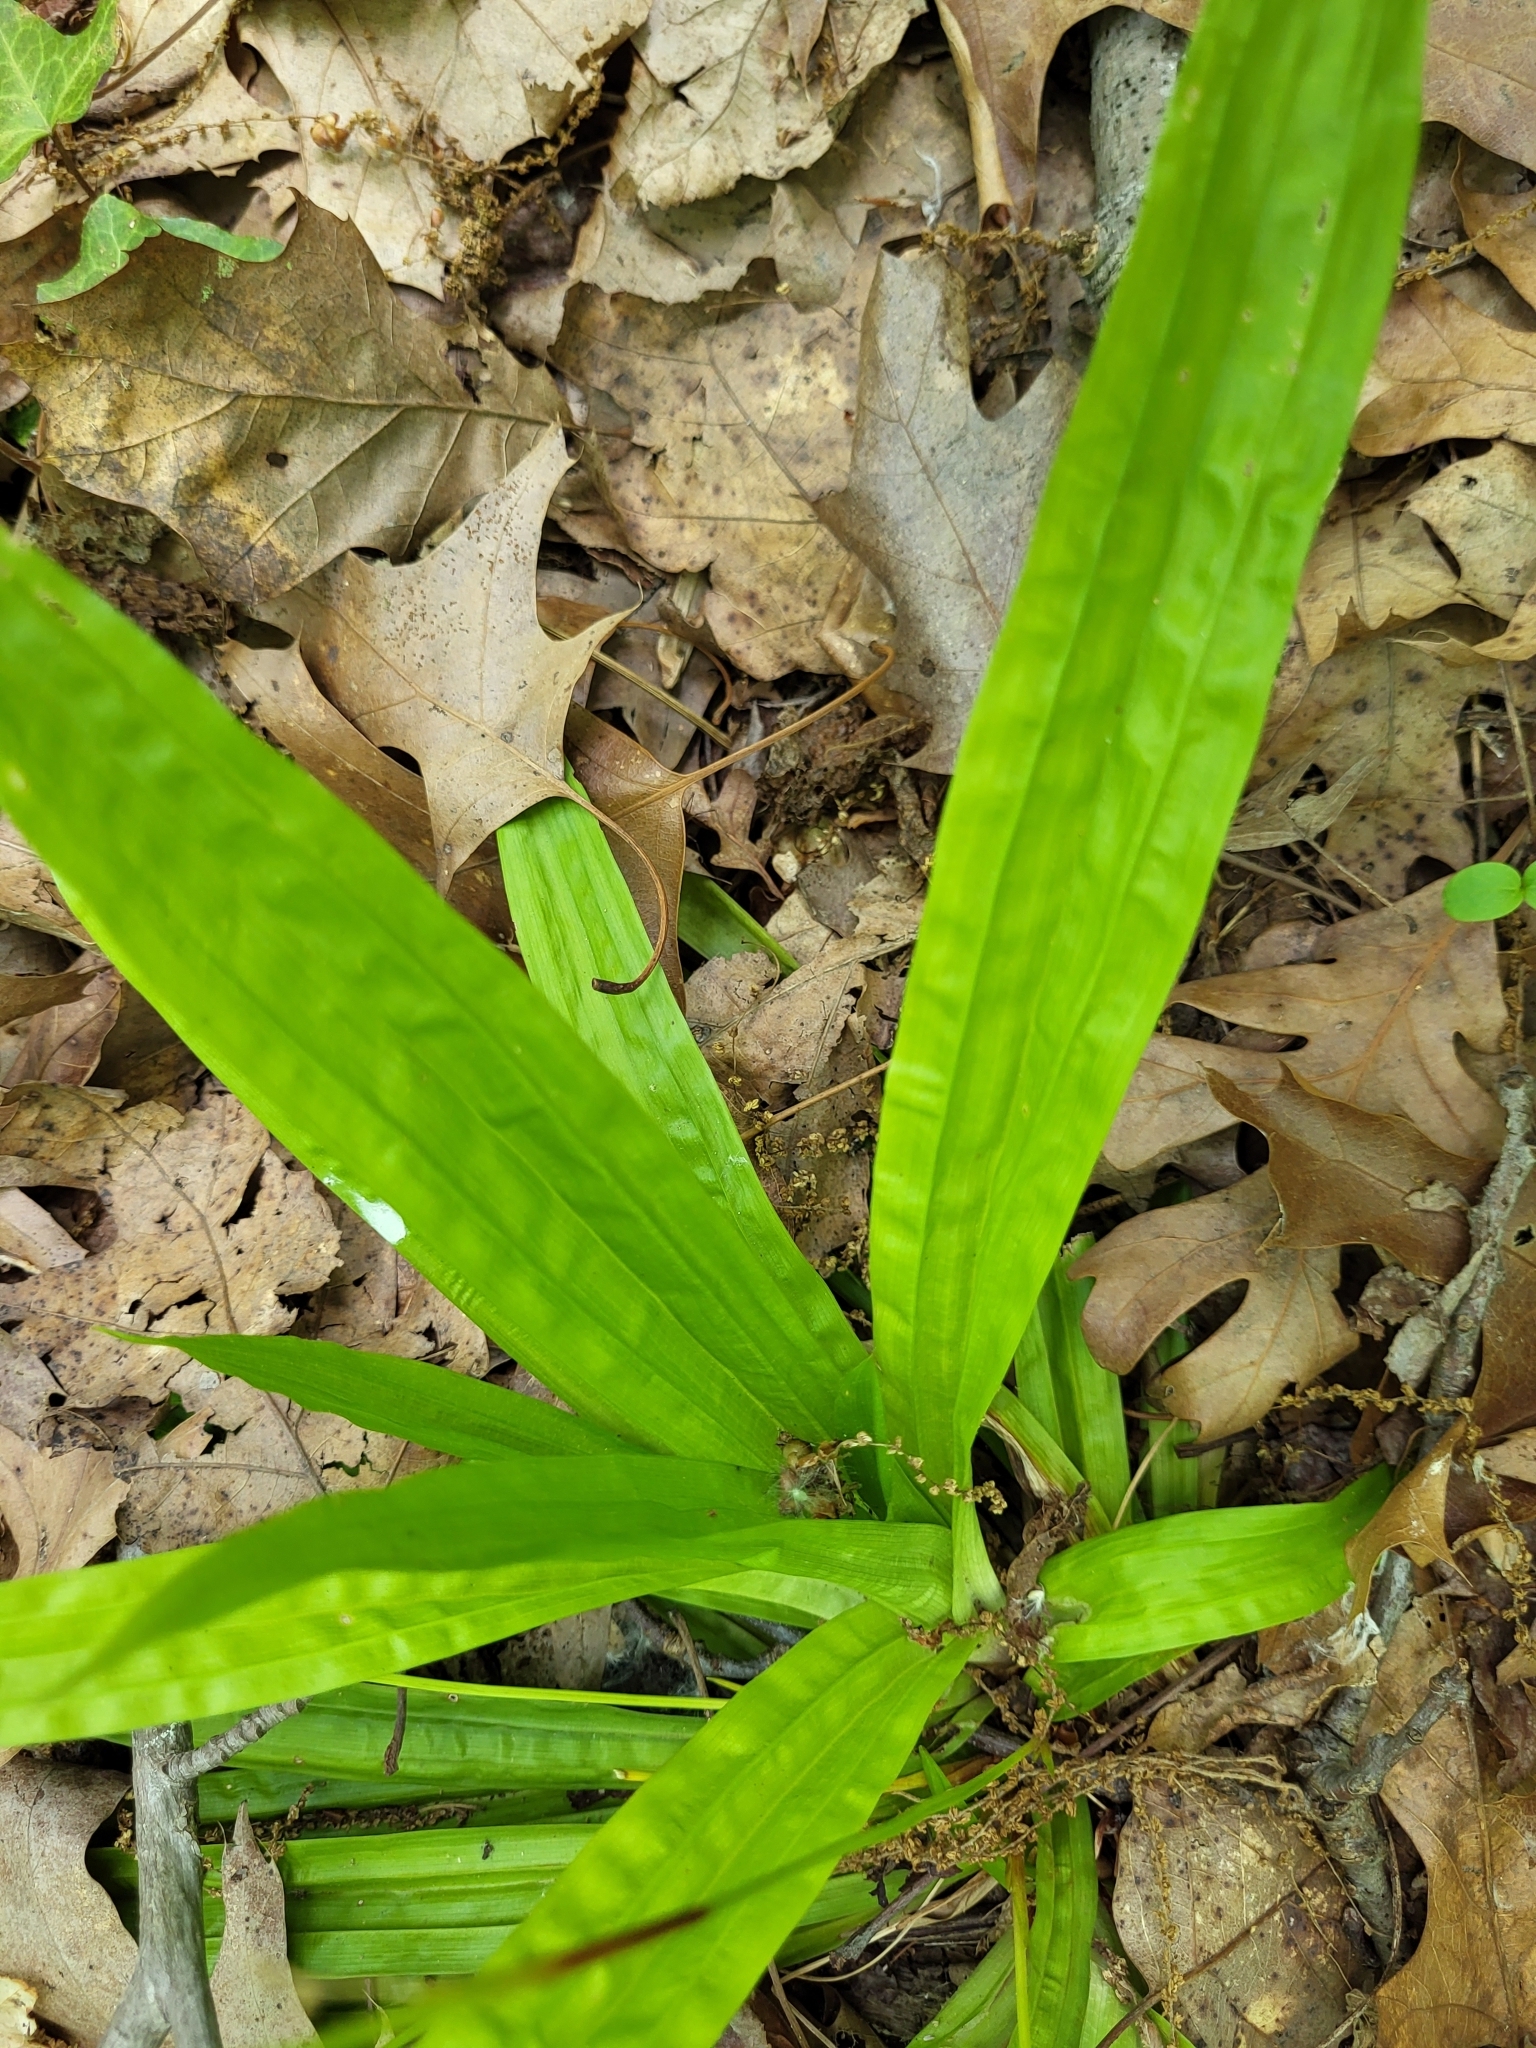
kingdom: Plantae
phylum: Tracheophyta
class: Liliopsida
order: Poales
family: Cyperaceae
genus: Carex
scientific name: Carex plantaginea
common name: Plantain-leaved sedge
